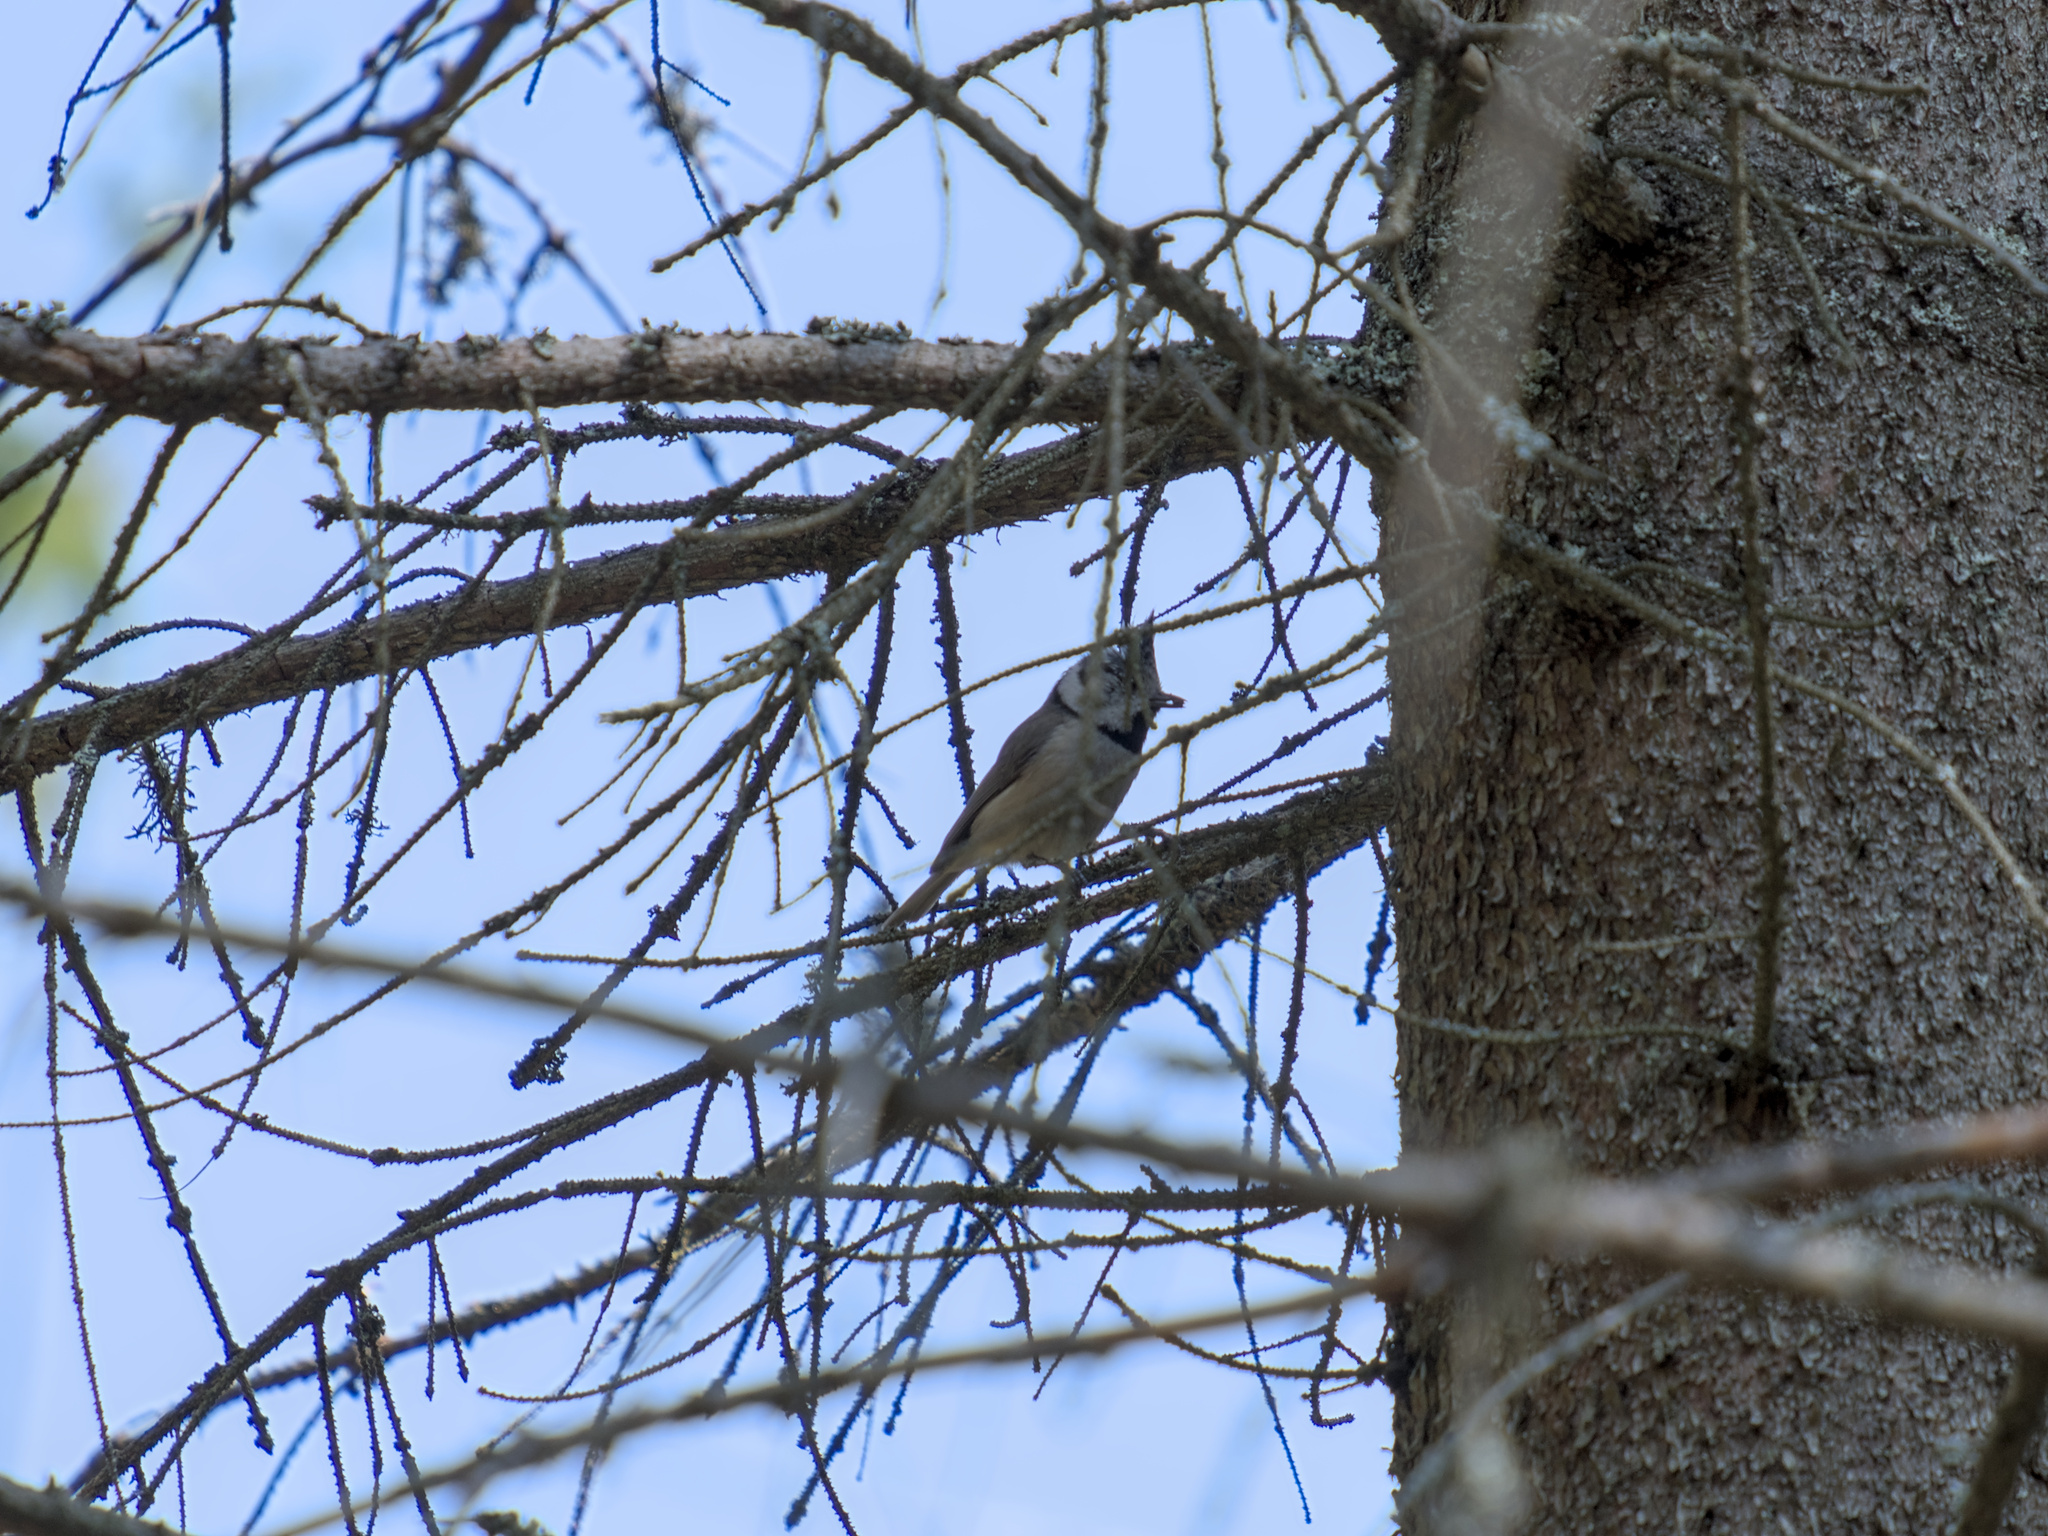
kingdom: Animalia
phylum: Chordata
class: Aves
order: Passeriformes
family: Paridae
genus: Lophophanes
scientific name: Lophophanes cristatus
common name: European crested tit
